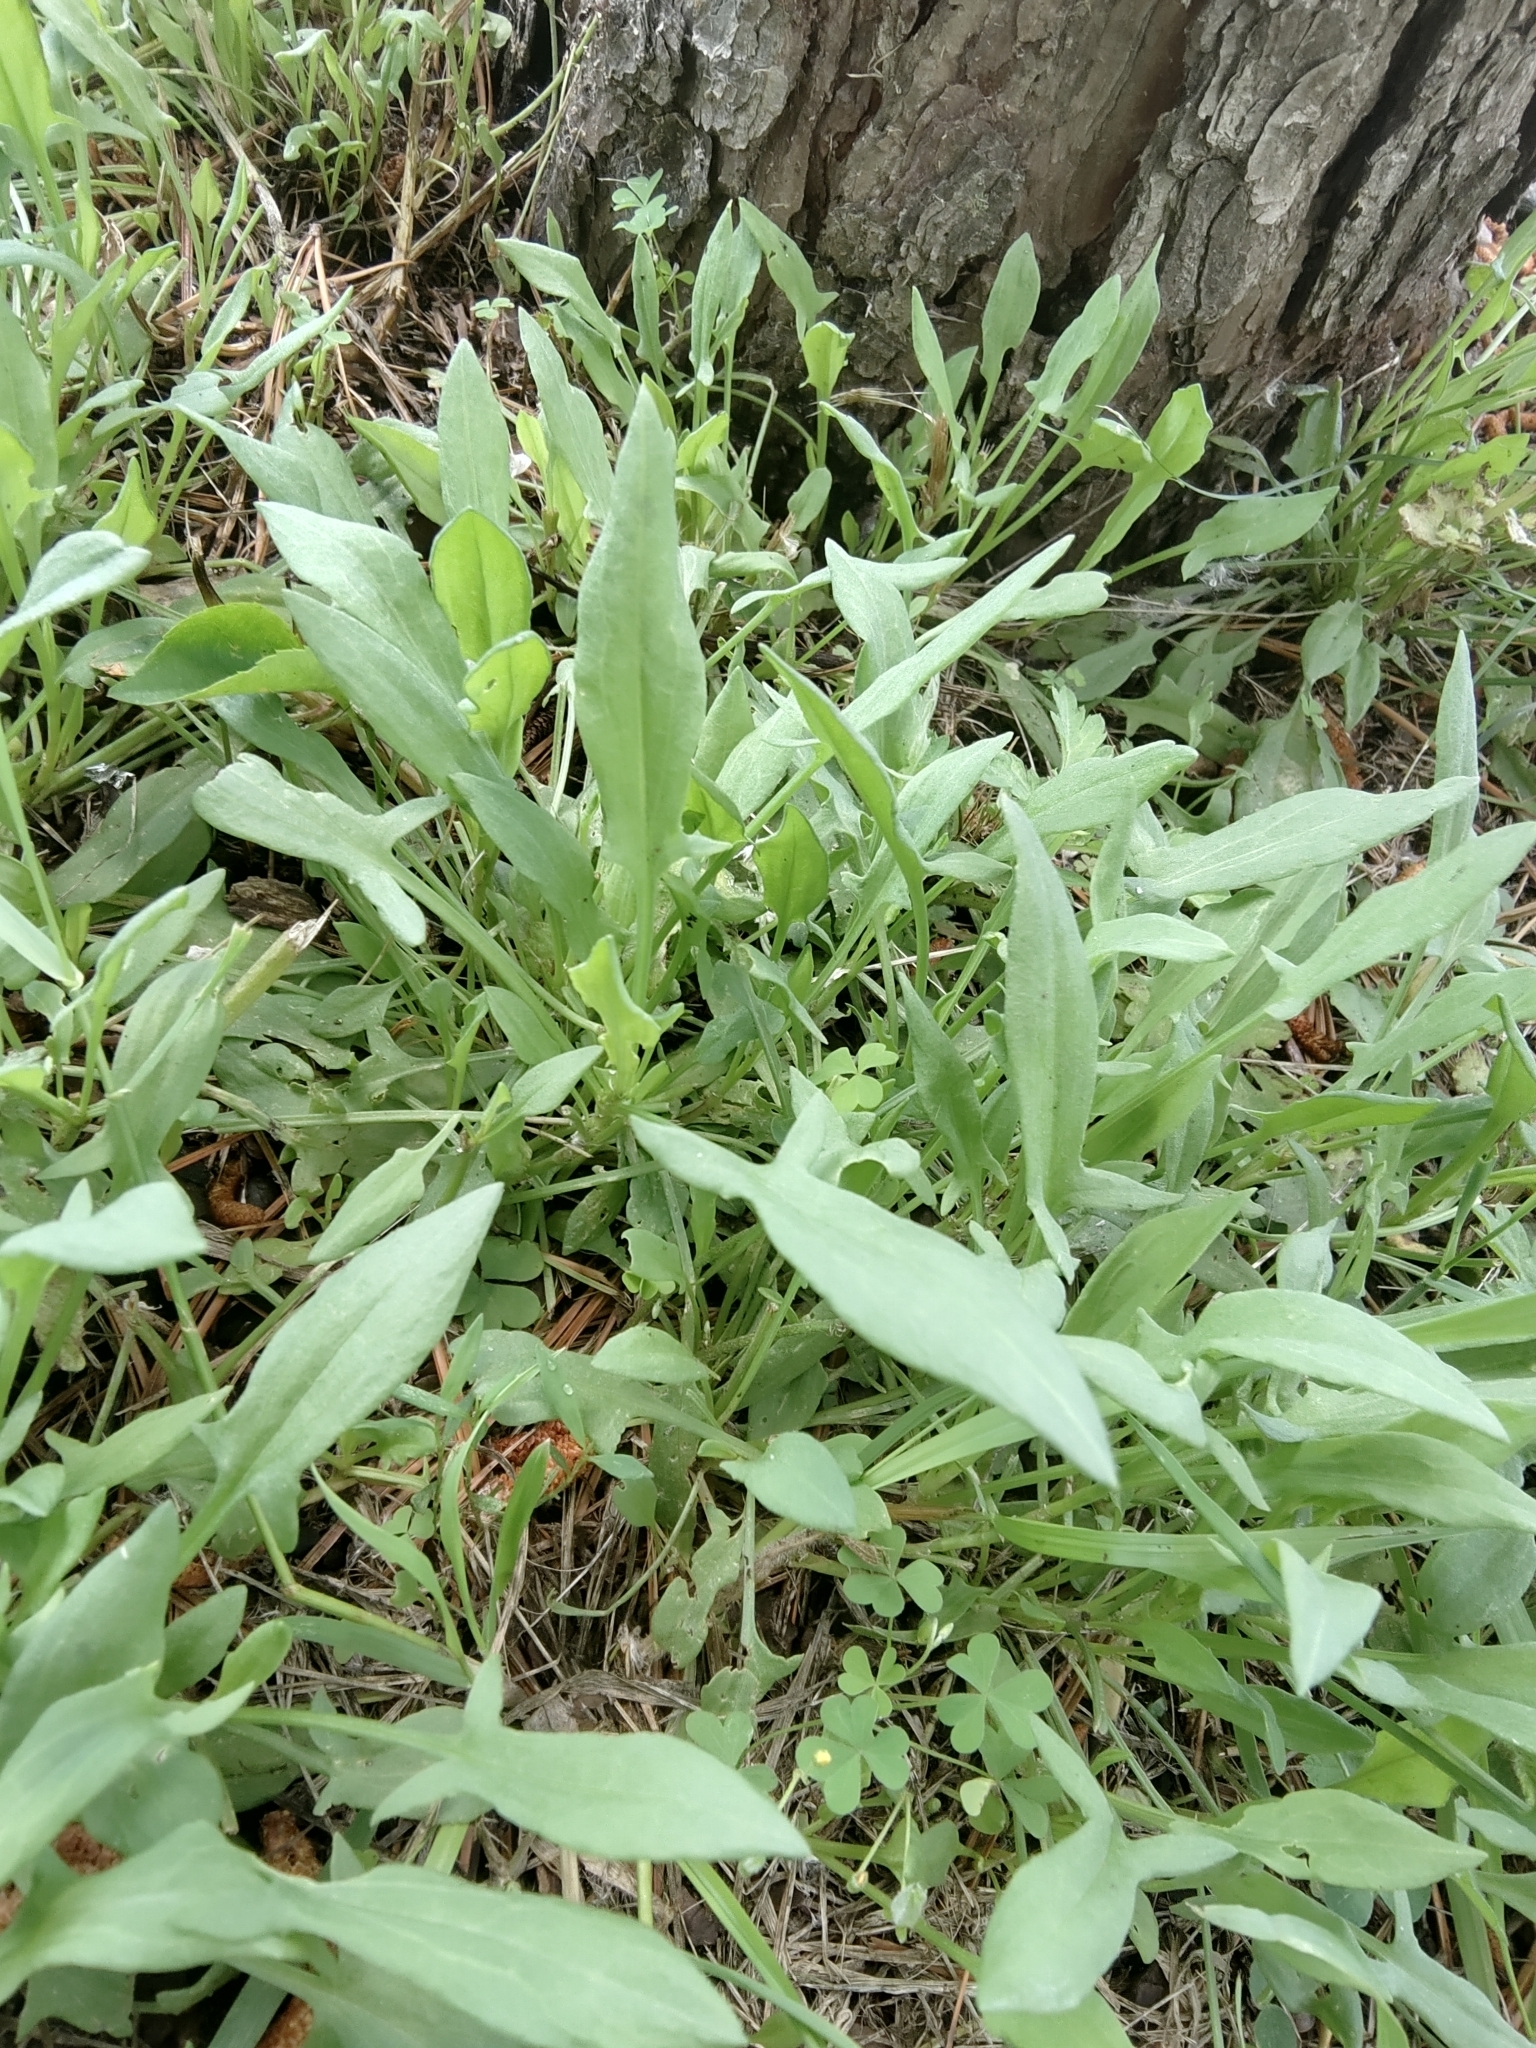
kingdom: Plantae
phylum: Tracheophyta
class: Magnoliopsida
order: Caryophyllales
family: Polygonaceae
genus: Rumex
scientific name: Rumex acetosella
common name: Common sheep sorrel
